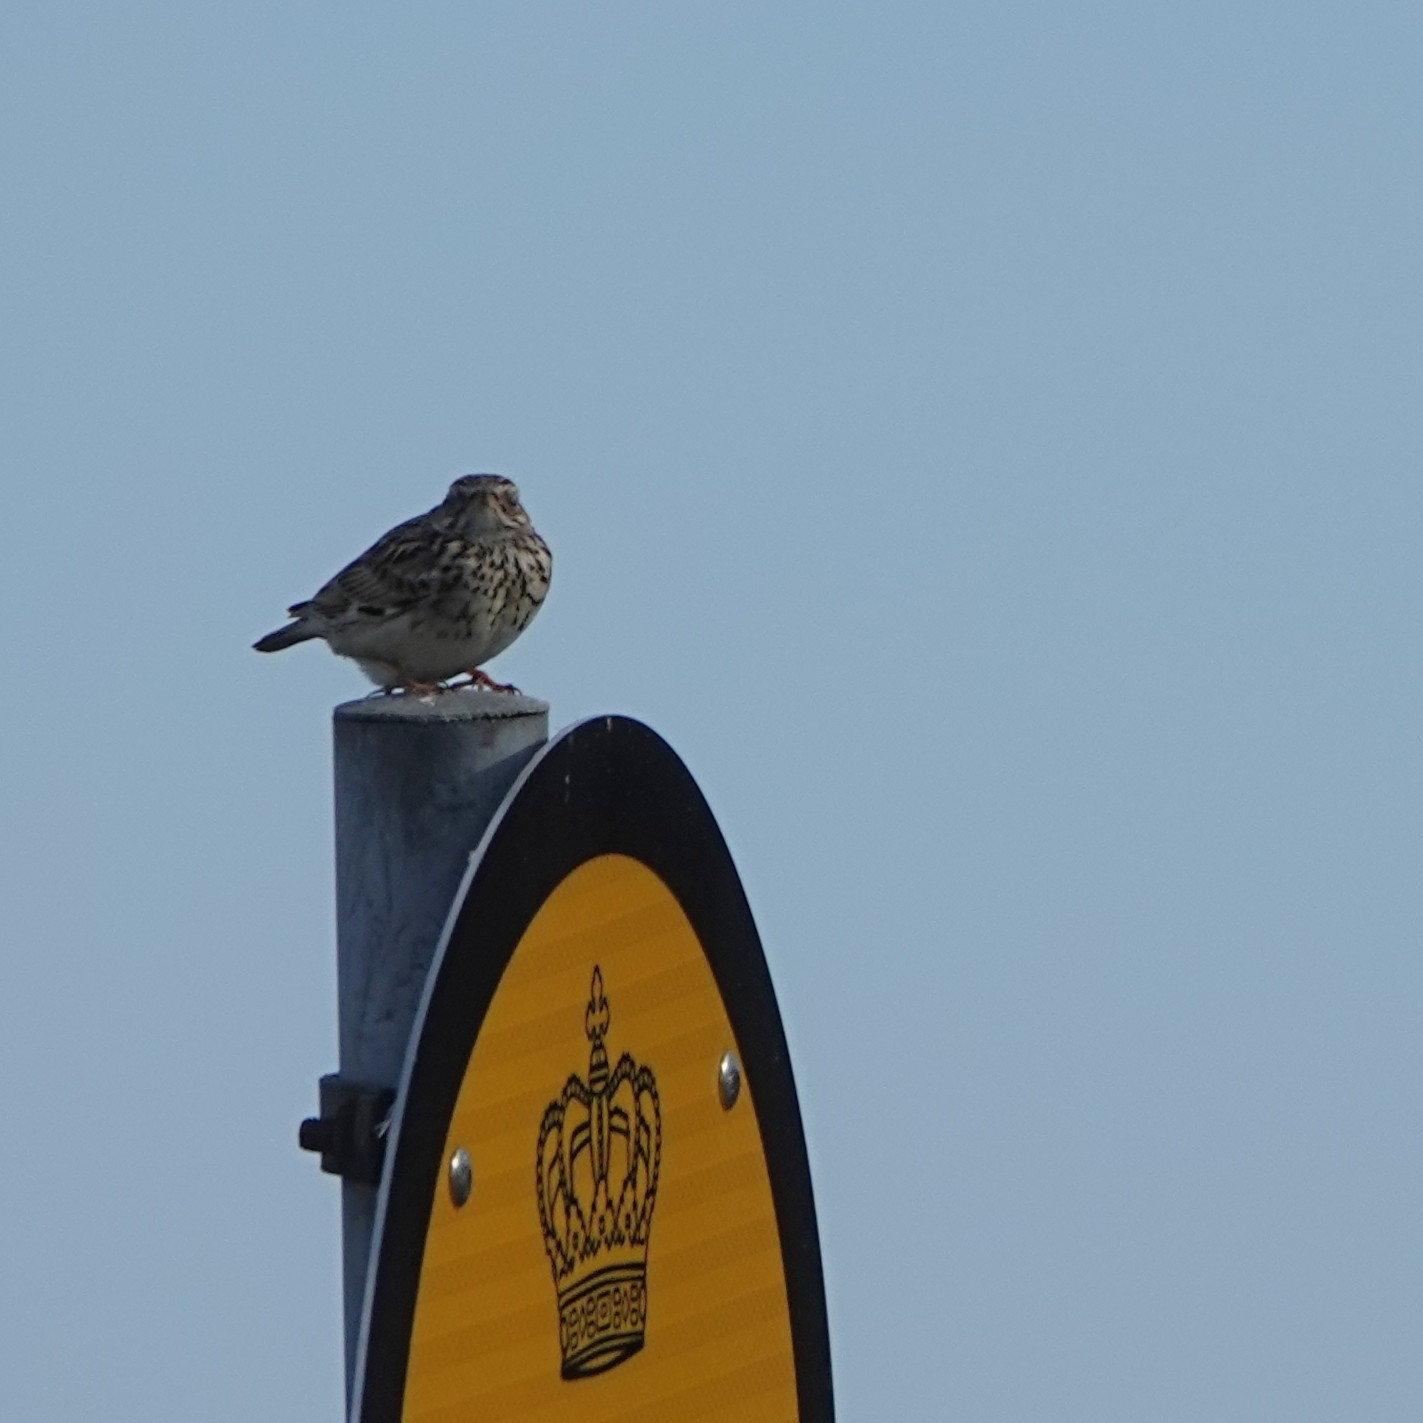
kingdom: Animalia
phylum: Chordata
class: Aves
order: Passeriformes
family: Alaudidae
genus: Lullula
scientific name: Lullula arborea
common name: Woodlark
